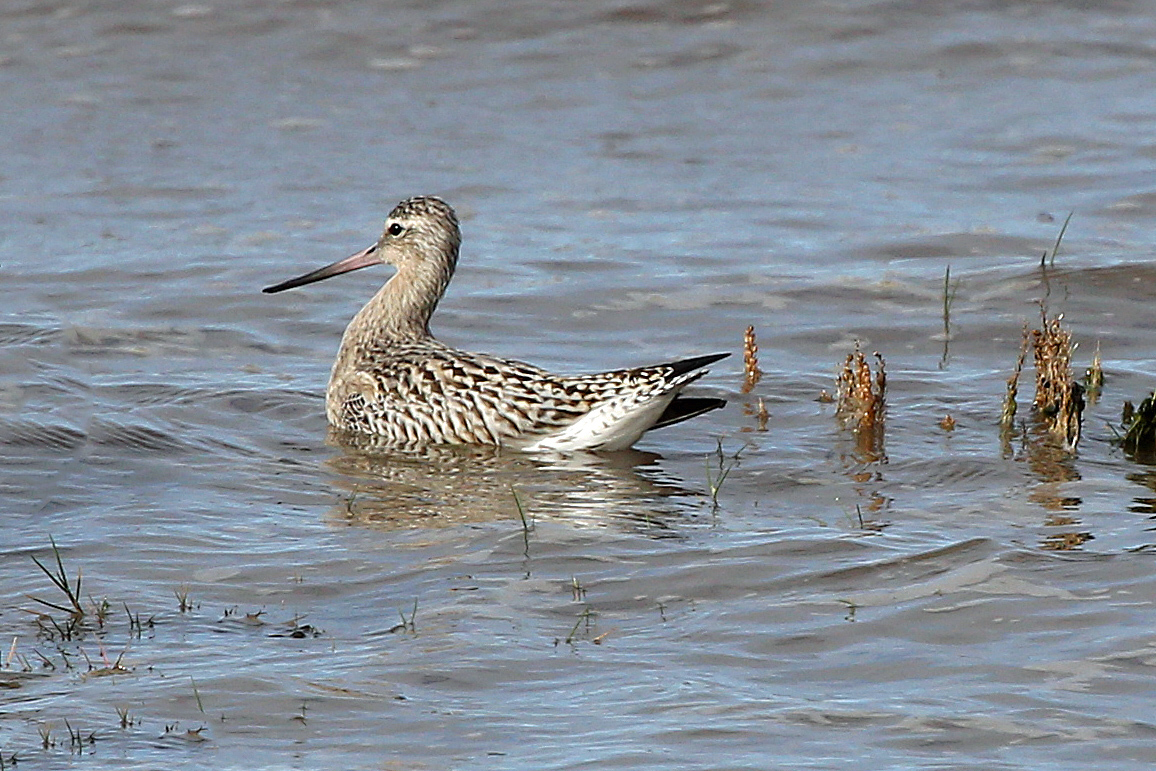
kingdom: Animalia
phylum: Chordata
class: Aves
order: Charadriiformes
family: Scolopacidae
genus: Limosa
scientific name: Limosa lapponica
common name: Bar-tailed godwit
